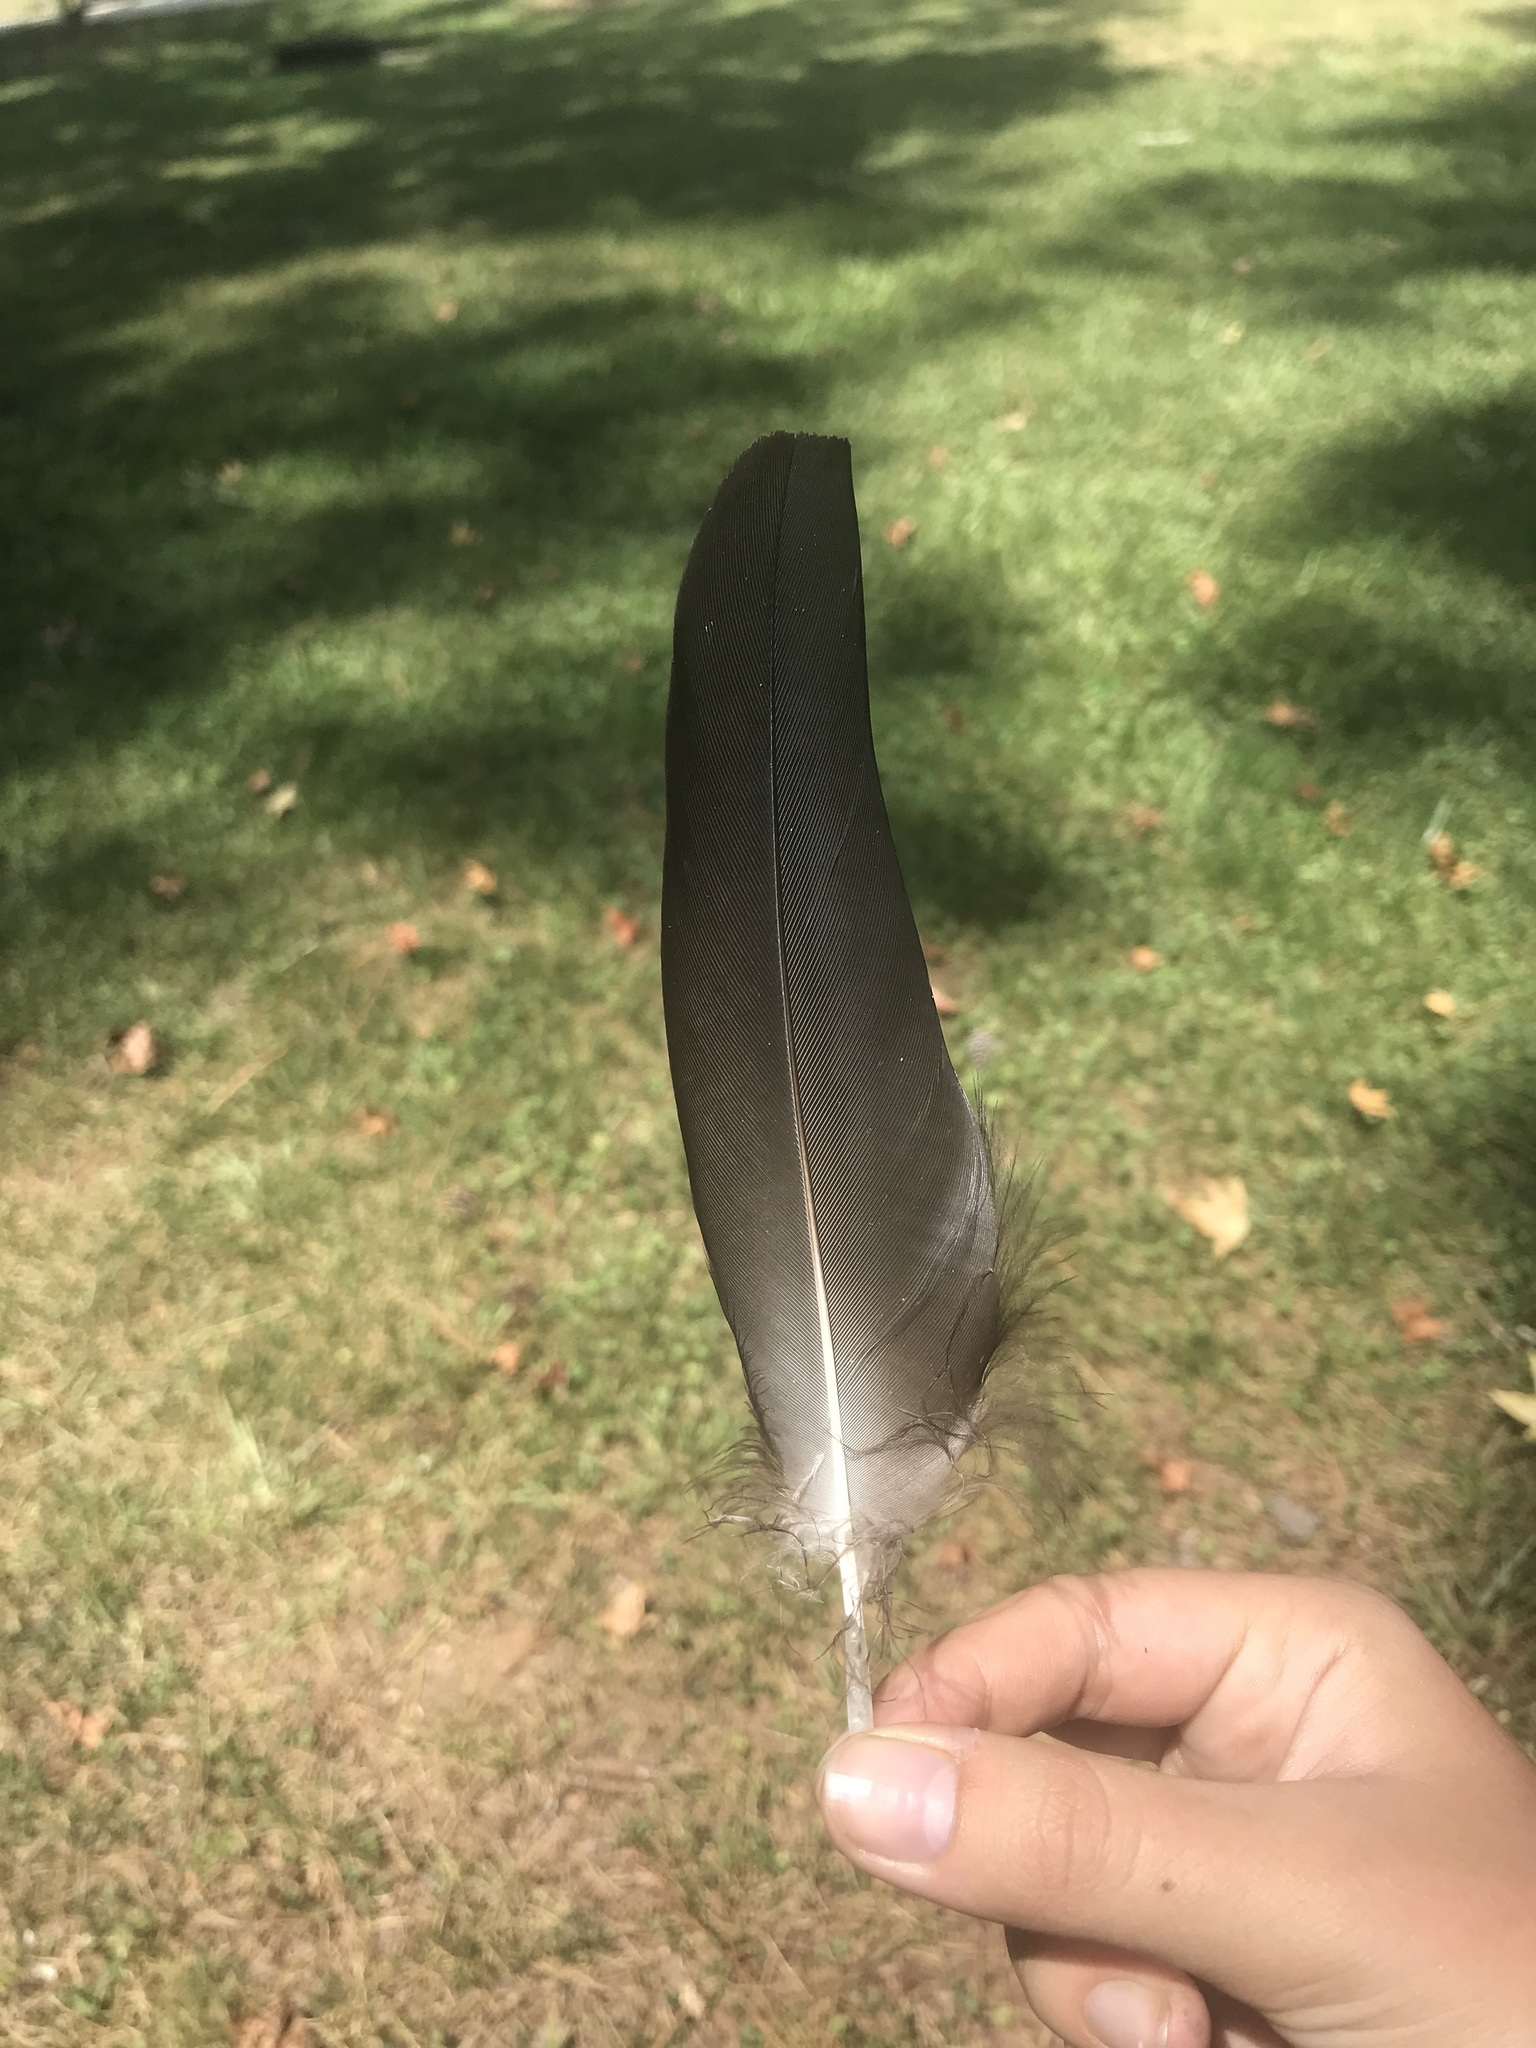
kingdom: Animalia
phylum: Chordata
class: Aves
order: Accipitriformes
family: Cathartidae
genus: Coragyps
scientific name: Coragyps atratus
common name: Black vulture
